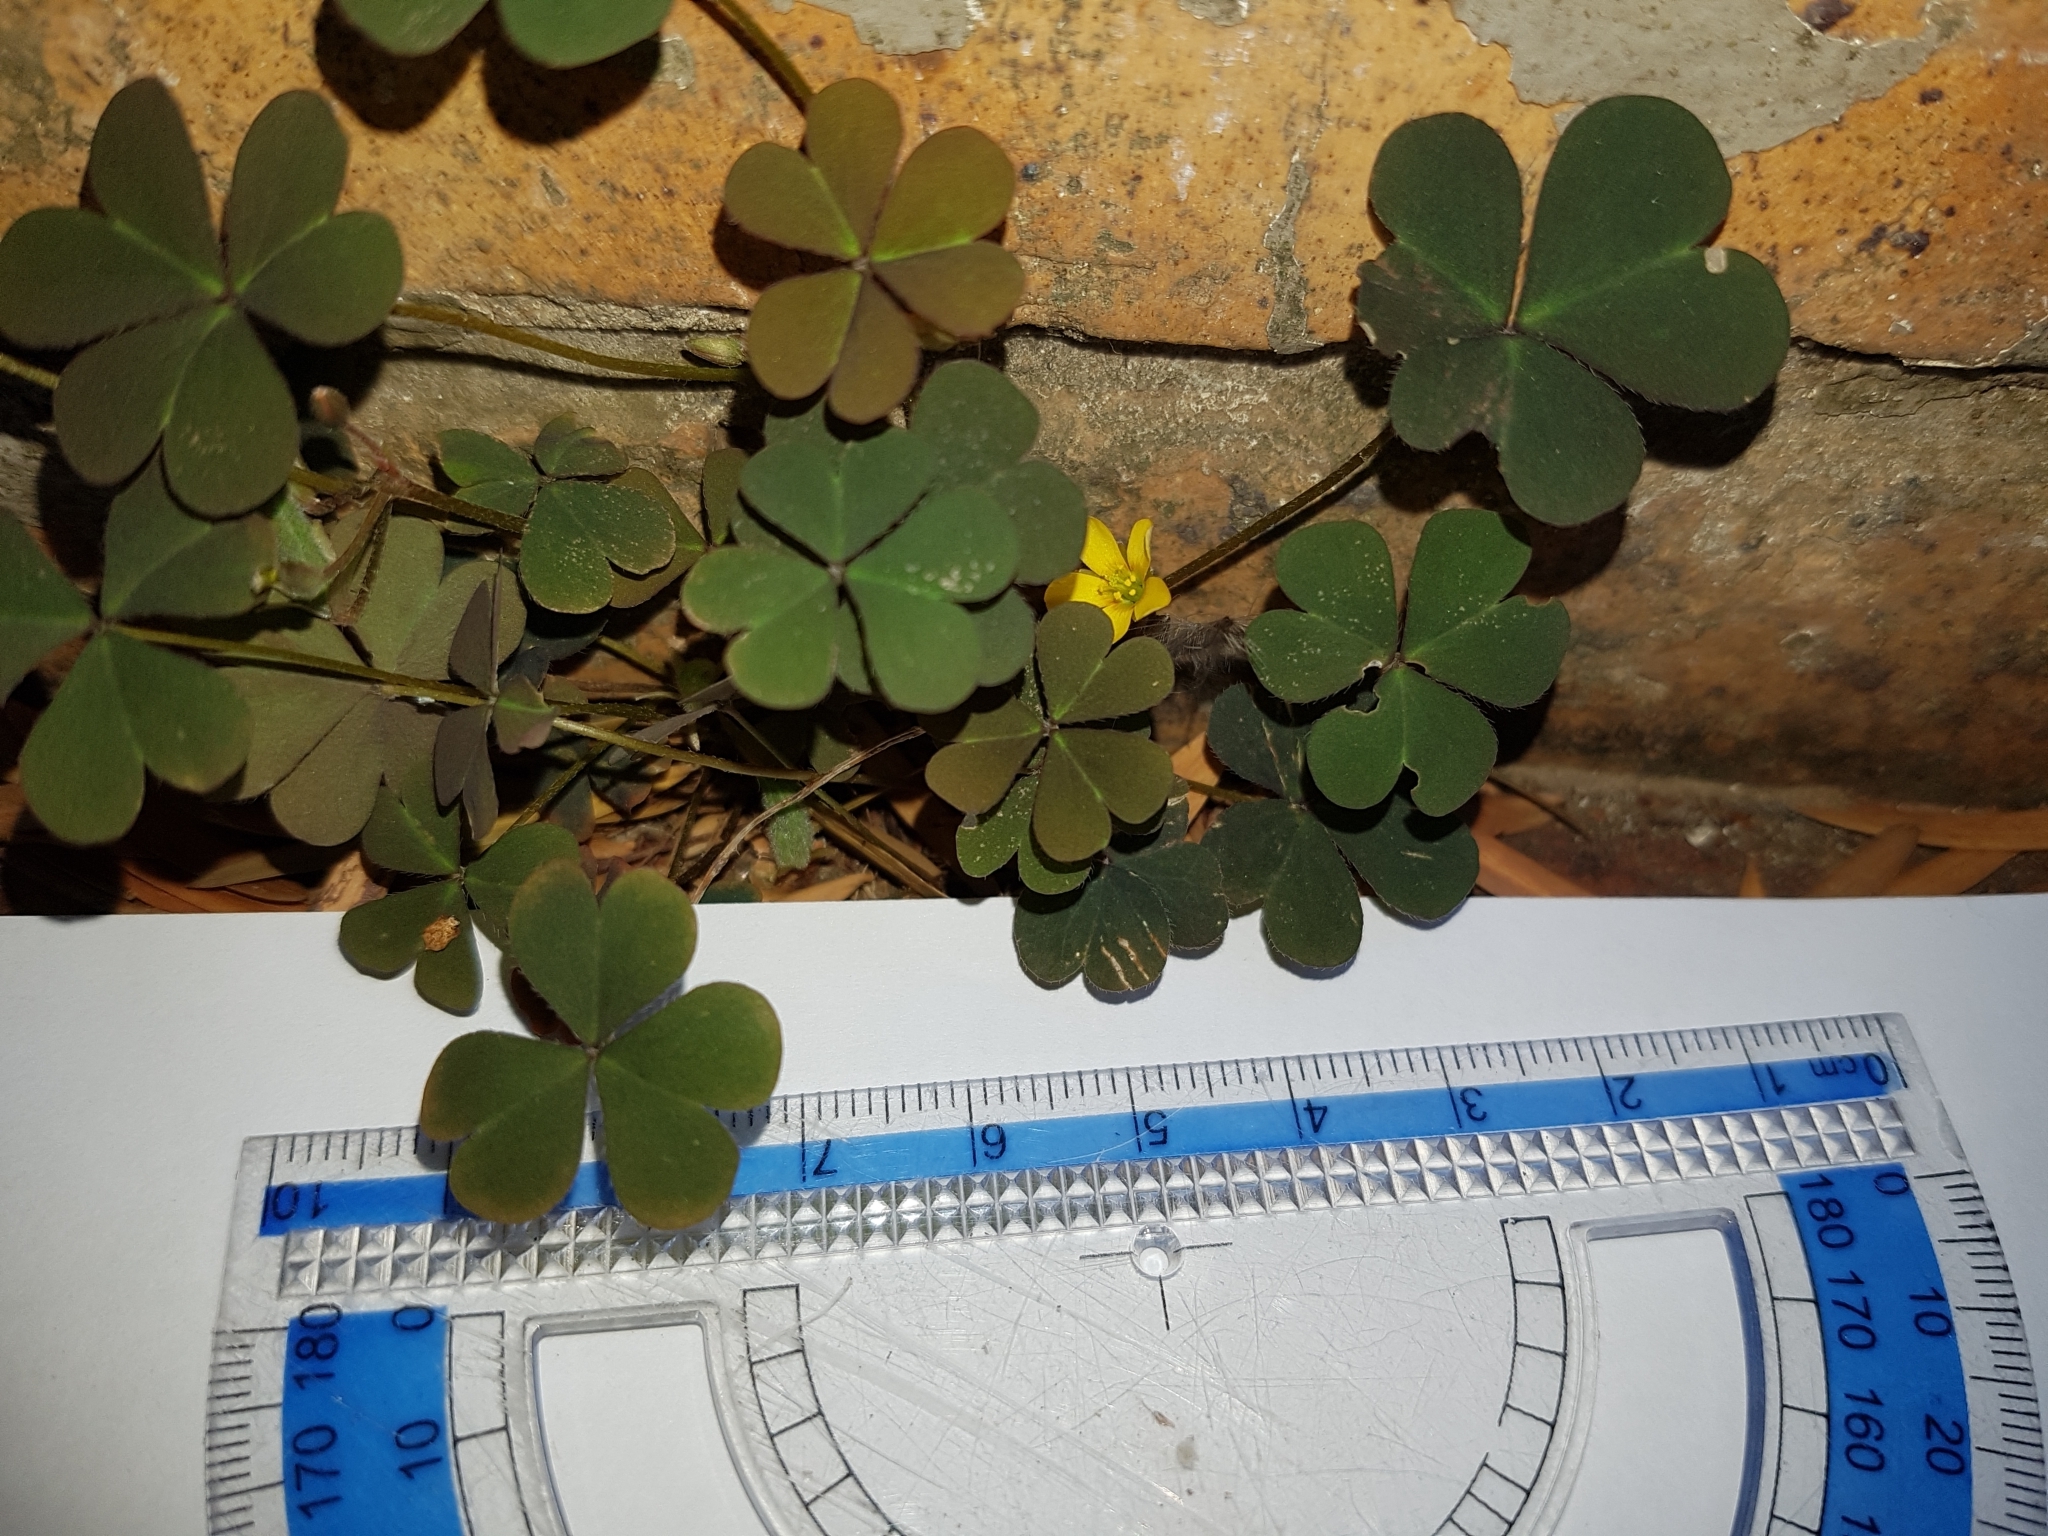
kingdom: Plantae
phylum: Tracheophyta
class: Magnoliopsida
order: Oxalidales
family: Oxalidaceae
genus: Oxalis
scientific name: Oxalis corniculata
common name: Procumbent yellow-sorrel
